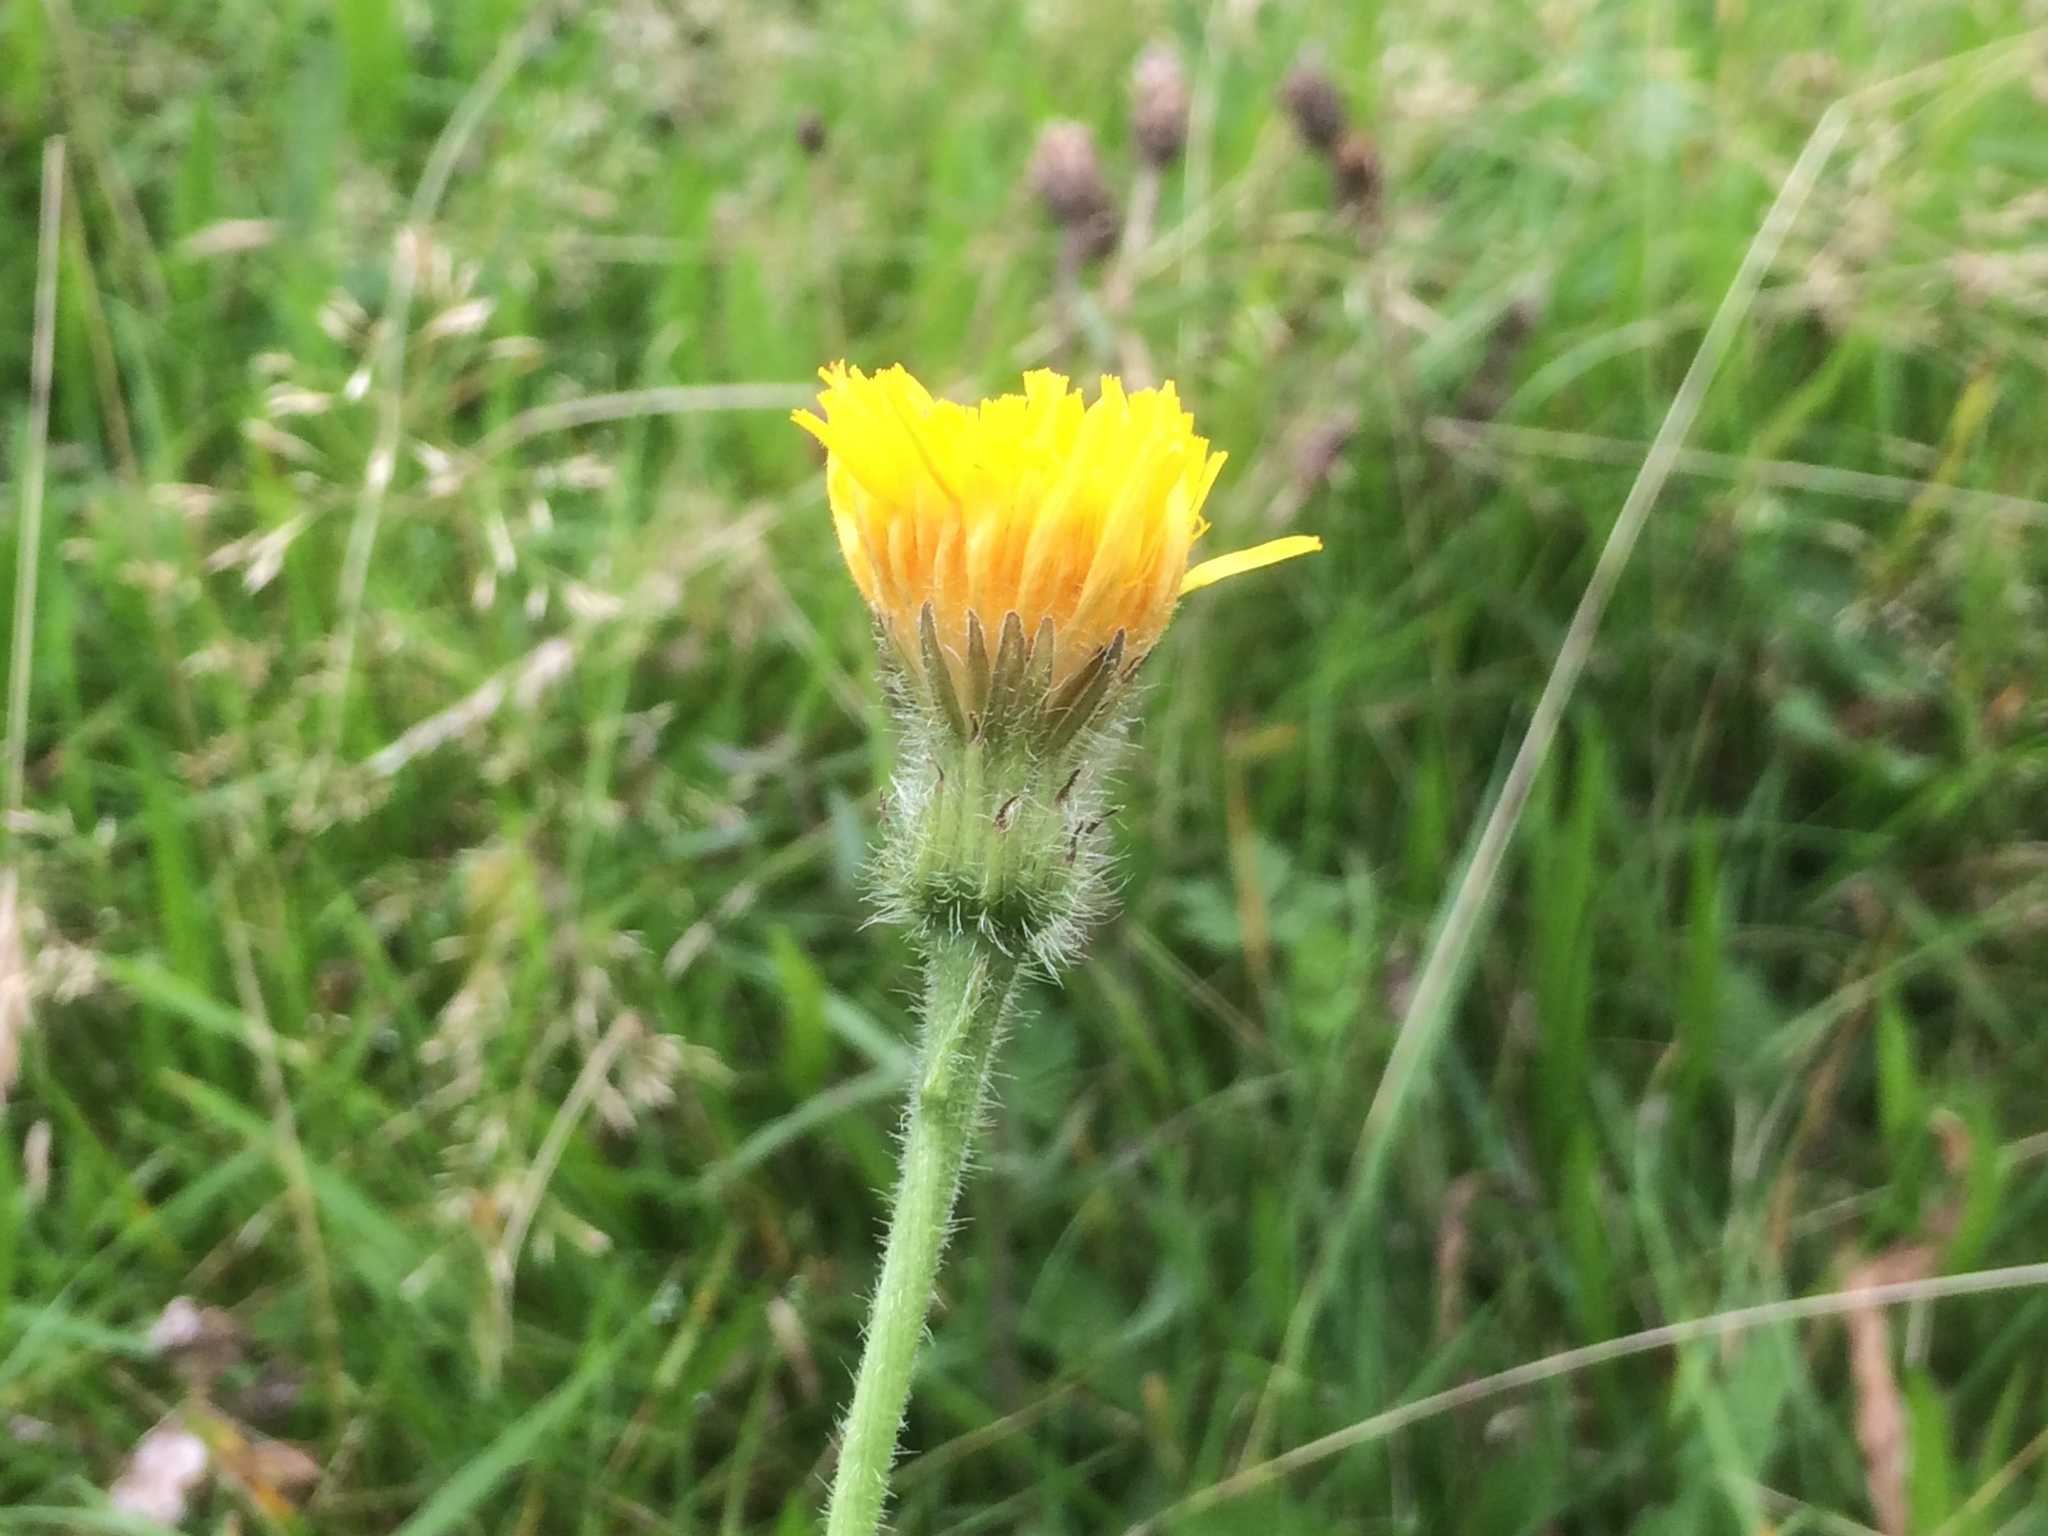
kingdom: Plantae
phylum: Tracheophyta
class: Magnoliopsida
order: Asterales
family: Asteraceae
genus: Leontodon
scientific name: Leontodon hispidus
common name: Rough hawkbit
